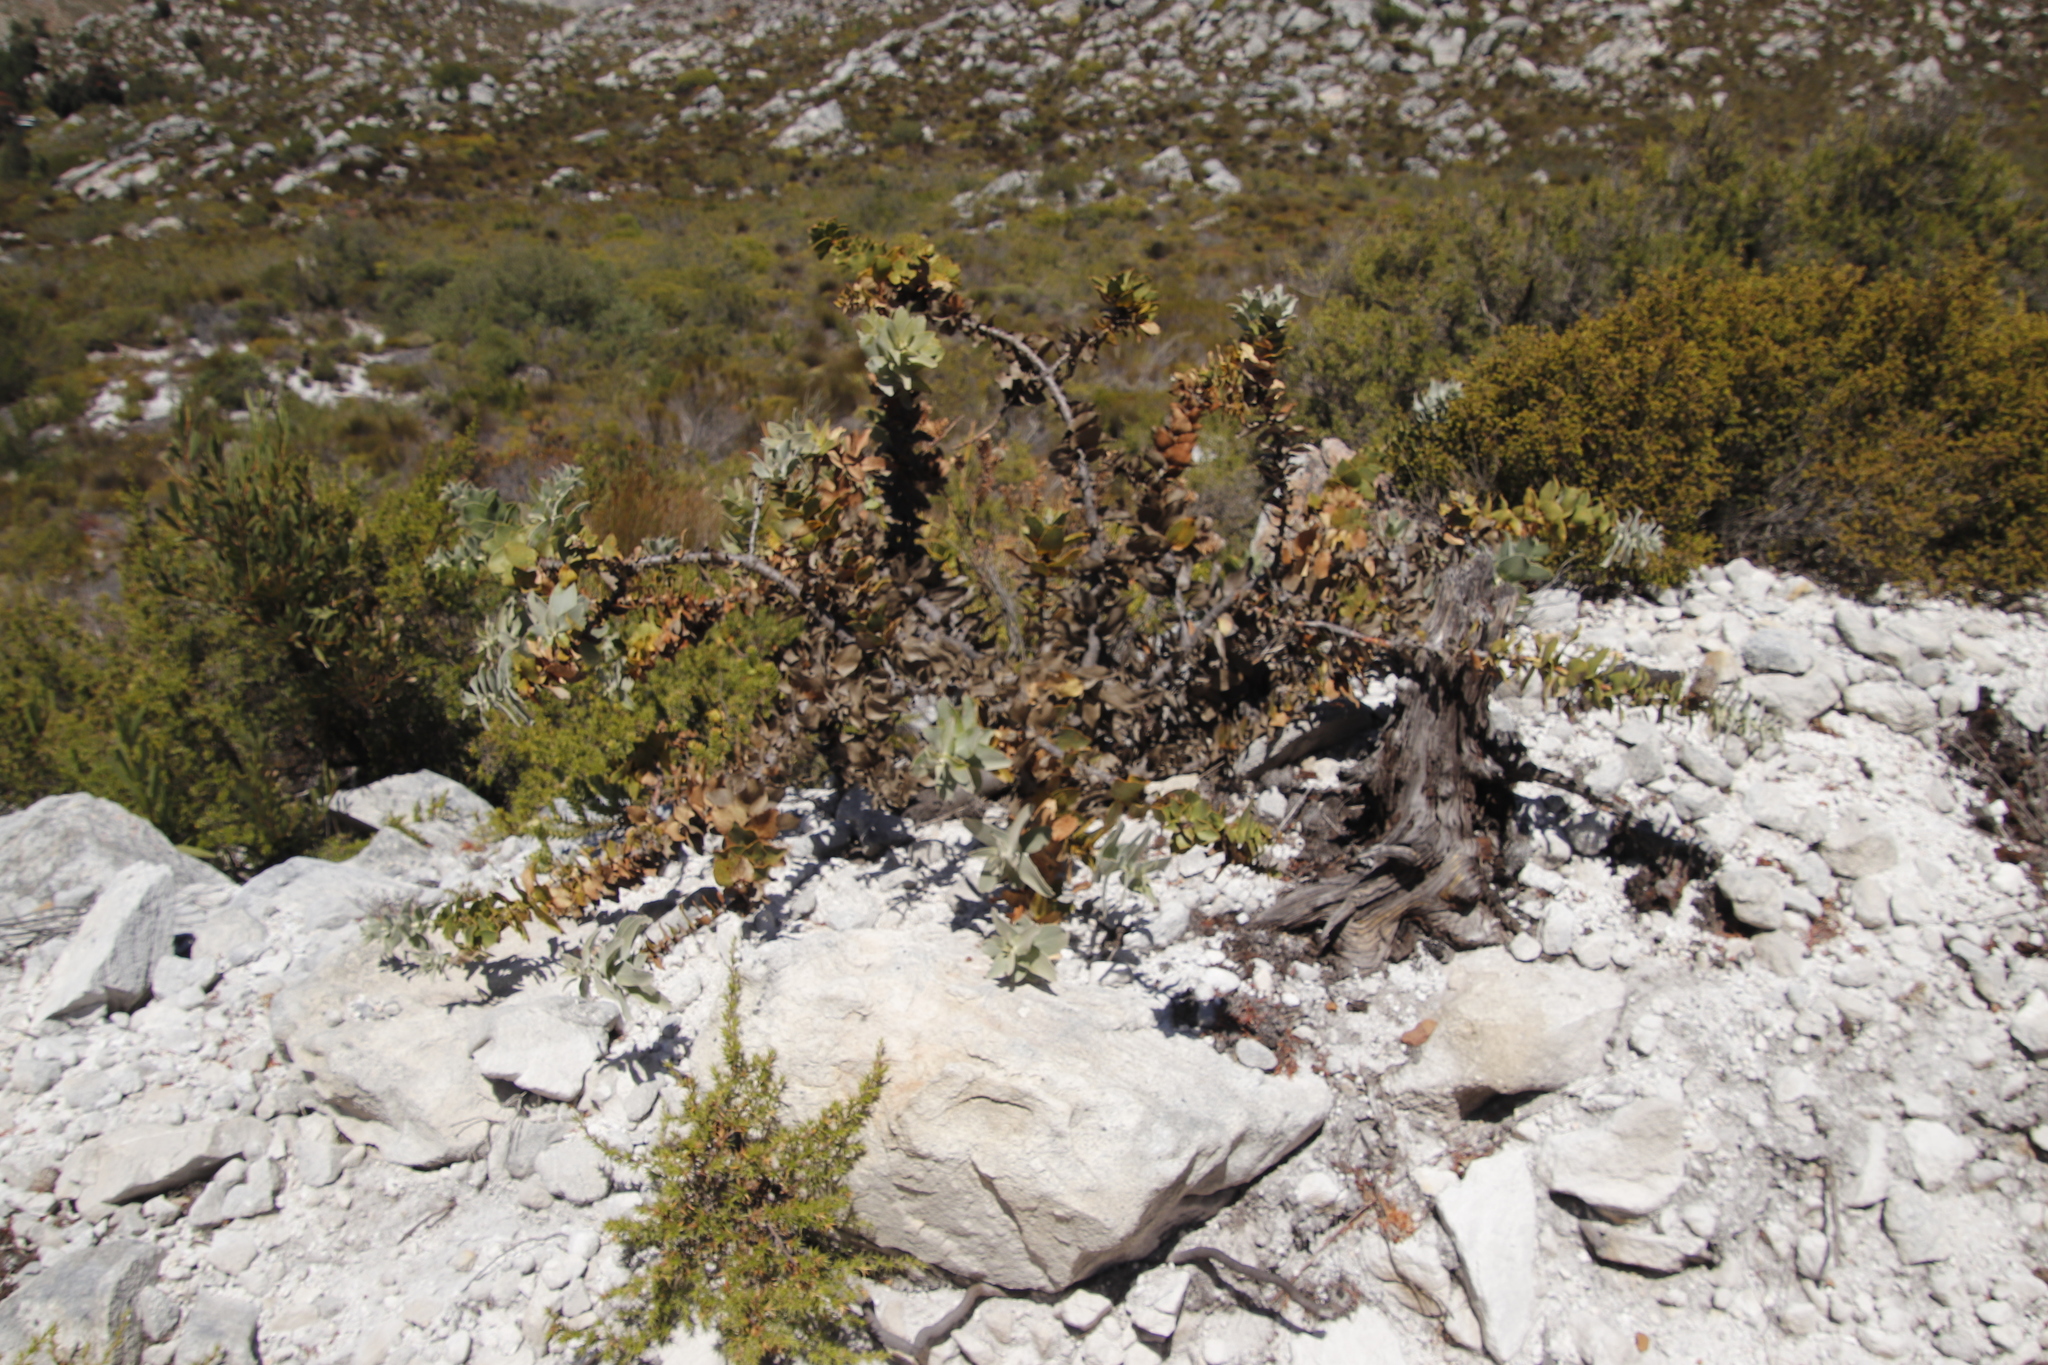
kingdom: Plantae
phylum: Tracheophyta
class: Magnoliopsida
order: Proteales
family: Proteaceae
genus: Leucospermum
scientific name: Leucospermum cordifolium
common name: Red pincushion-protea
